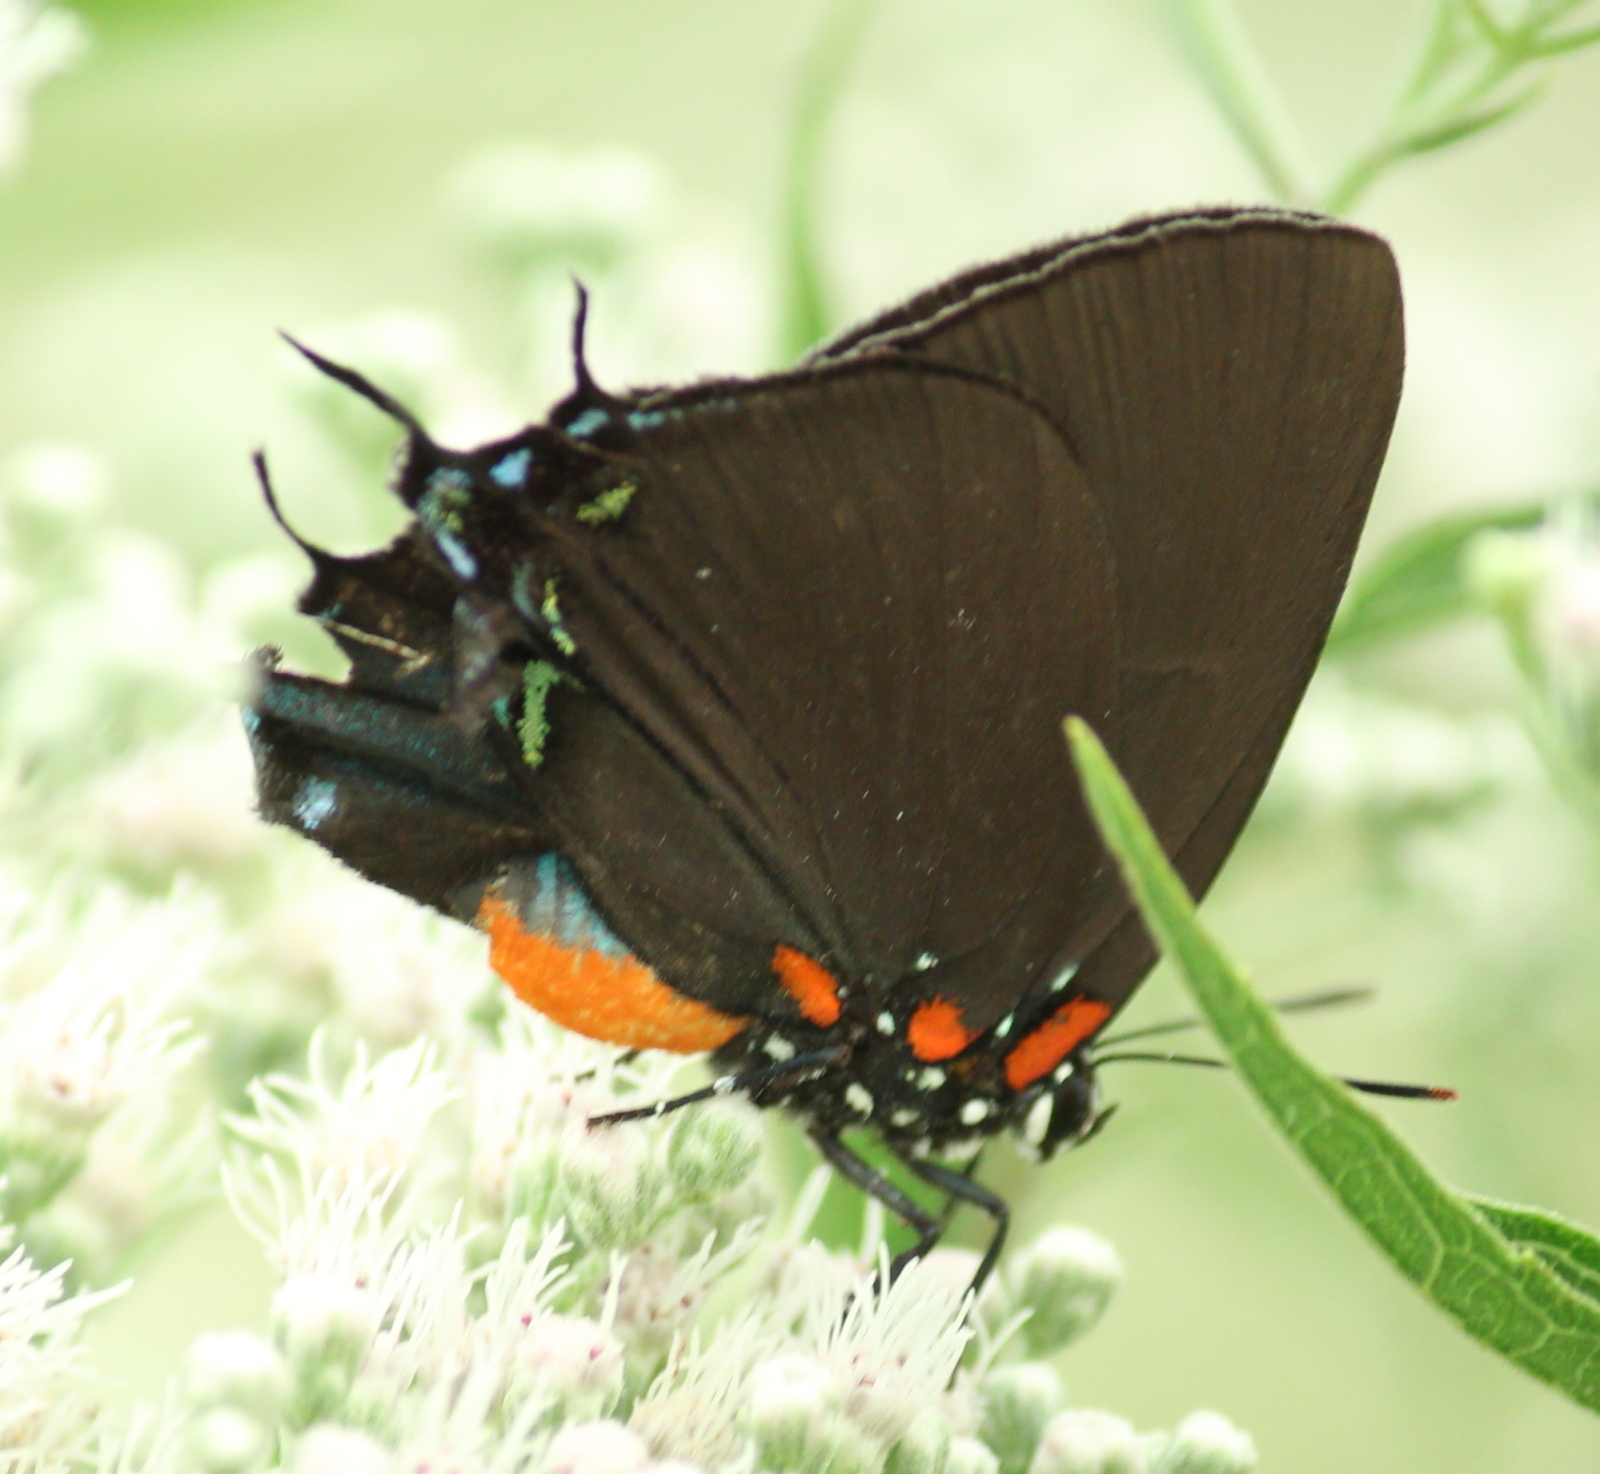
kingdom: Animalia
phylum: Arthropoda
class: Insecta
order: Lepidoptera
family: Lycaenidae
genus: Atlides
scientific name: Atlides halesus
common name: Great purple hairstreak
